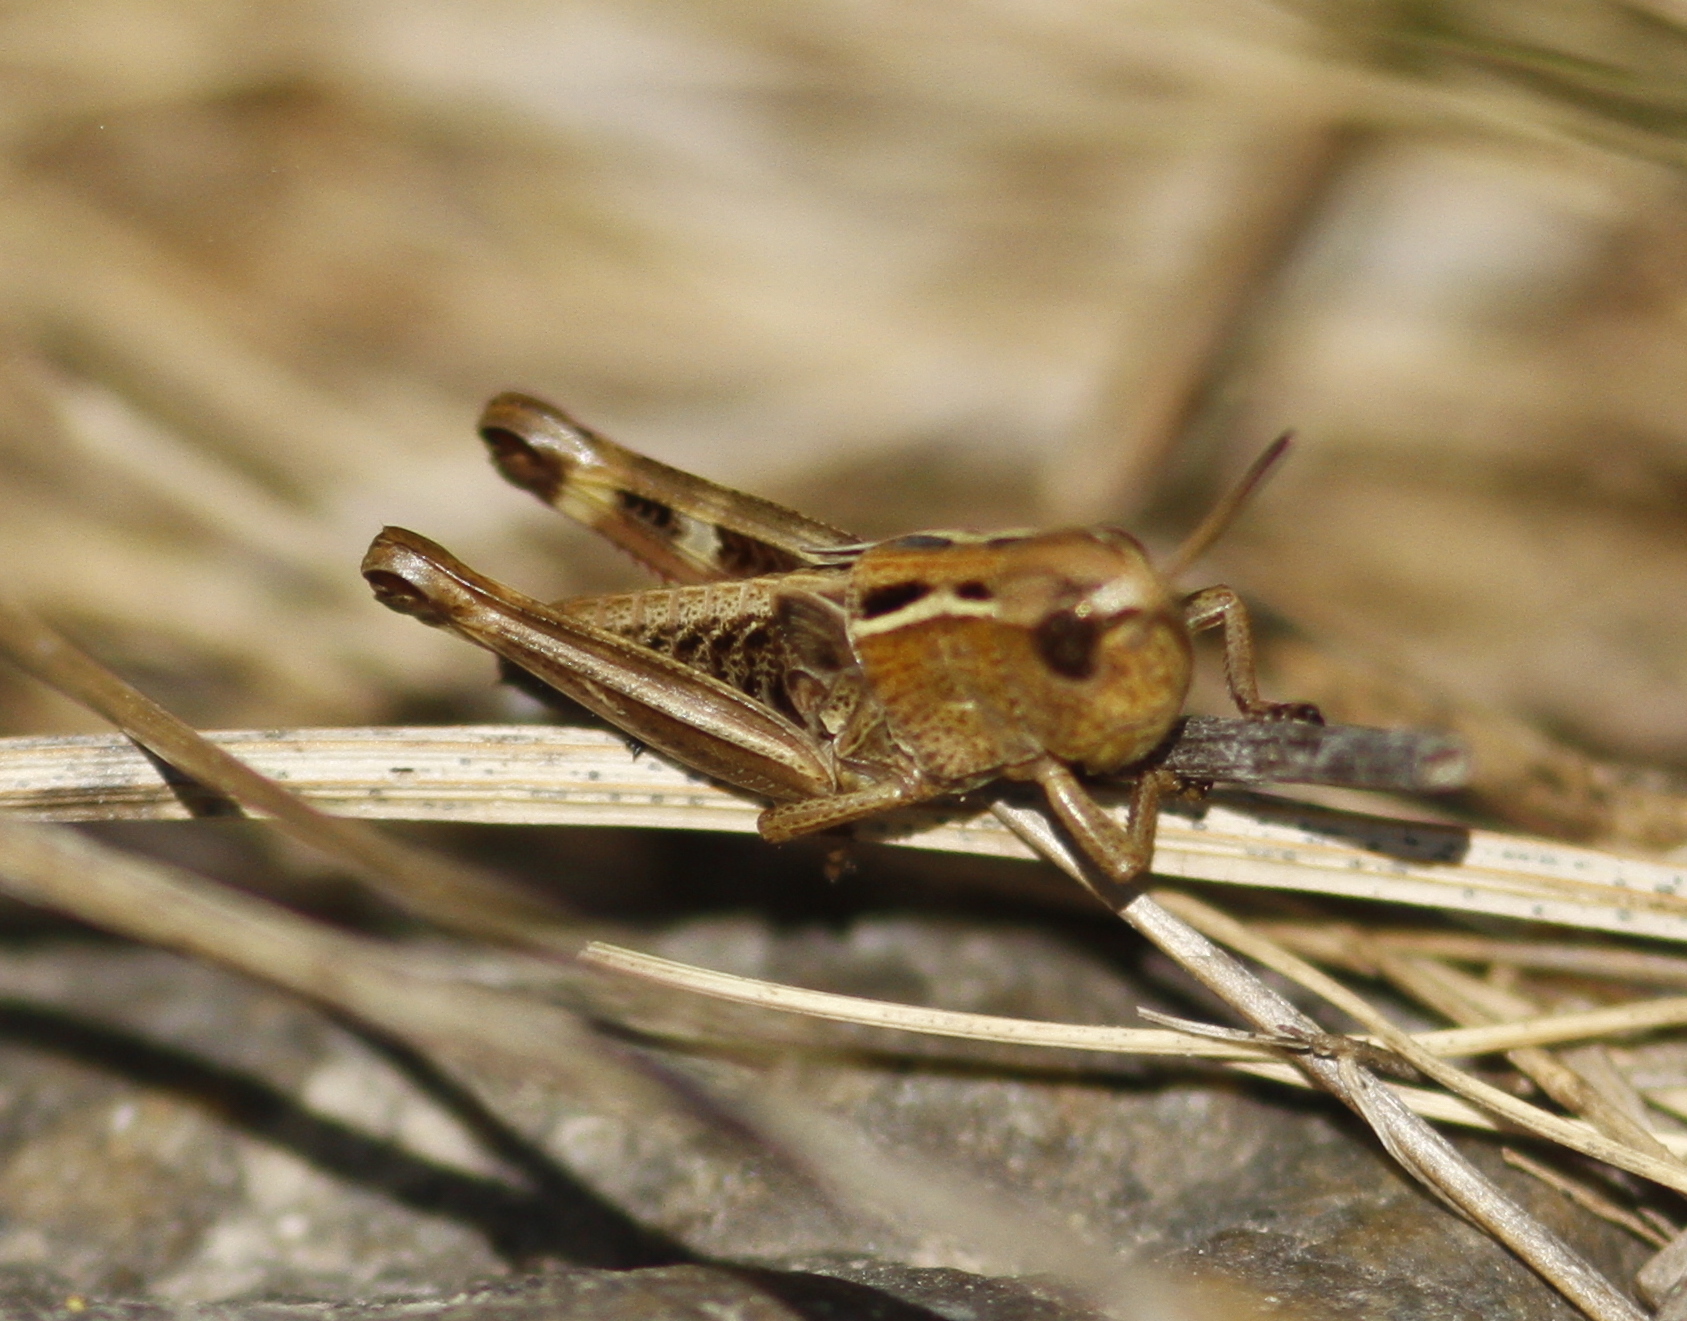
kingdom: Animalia
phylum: Arthropoda
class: Insecta
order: Orthoptera
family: Acrididae
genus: Arcyptera
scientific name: Arcyptera fusca
